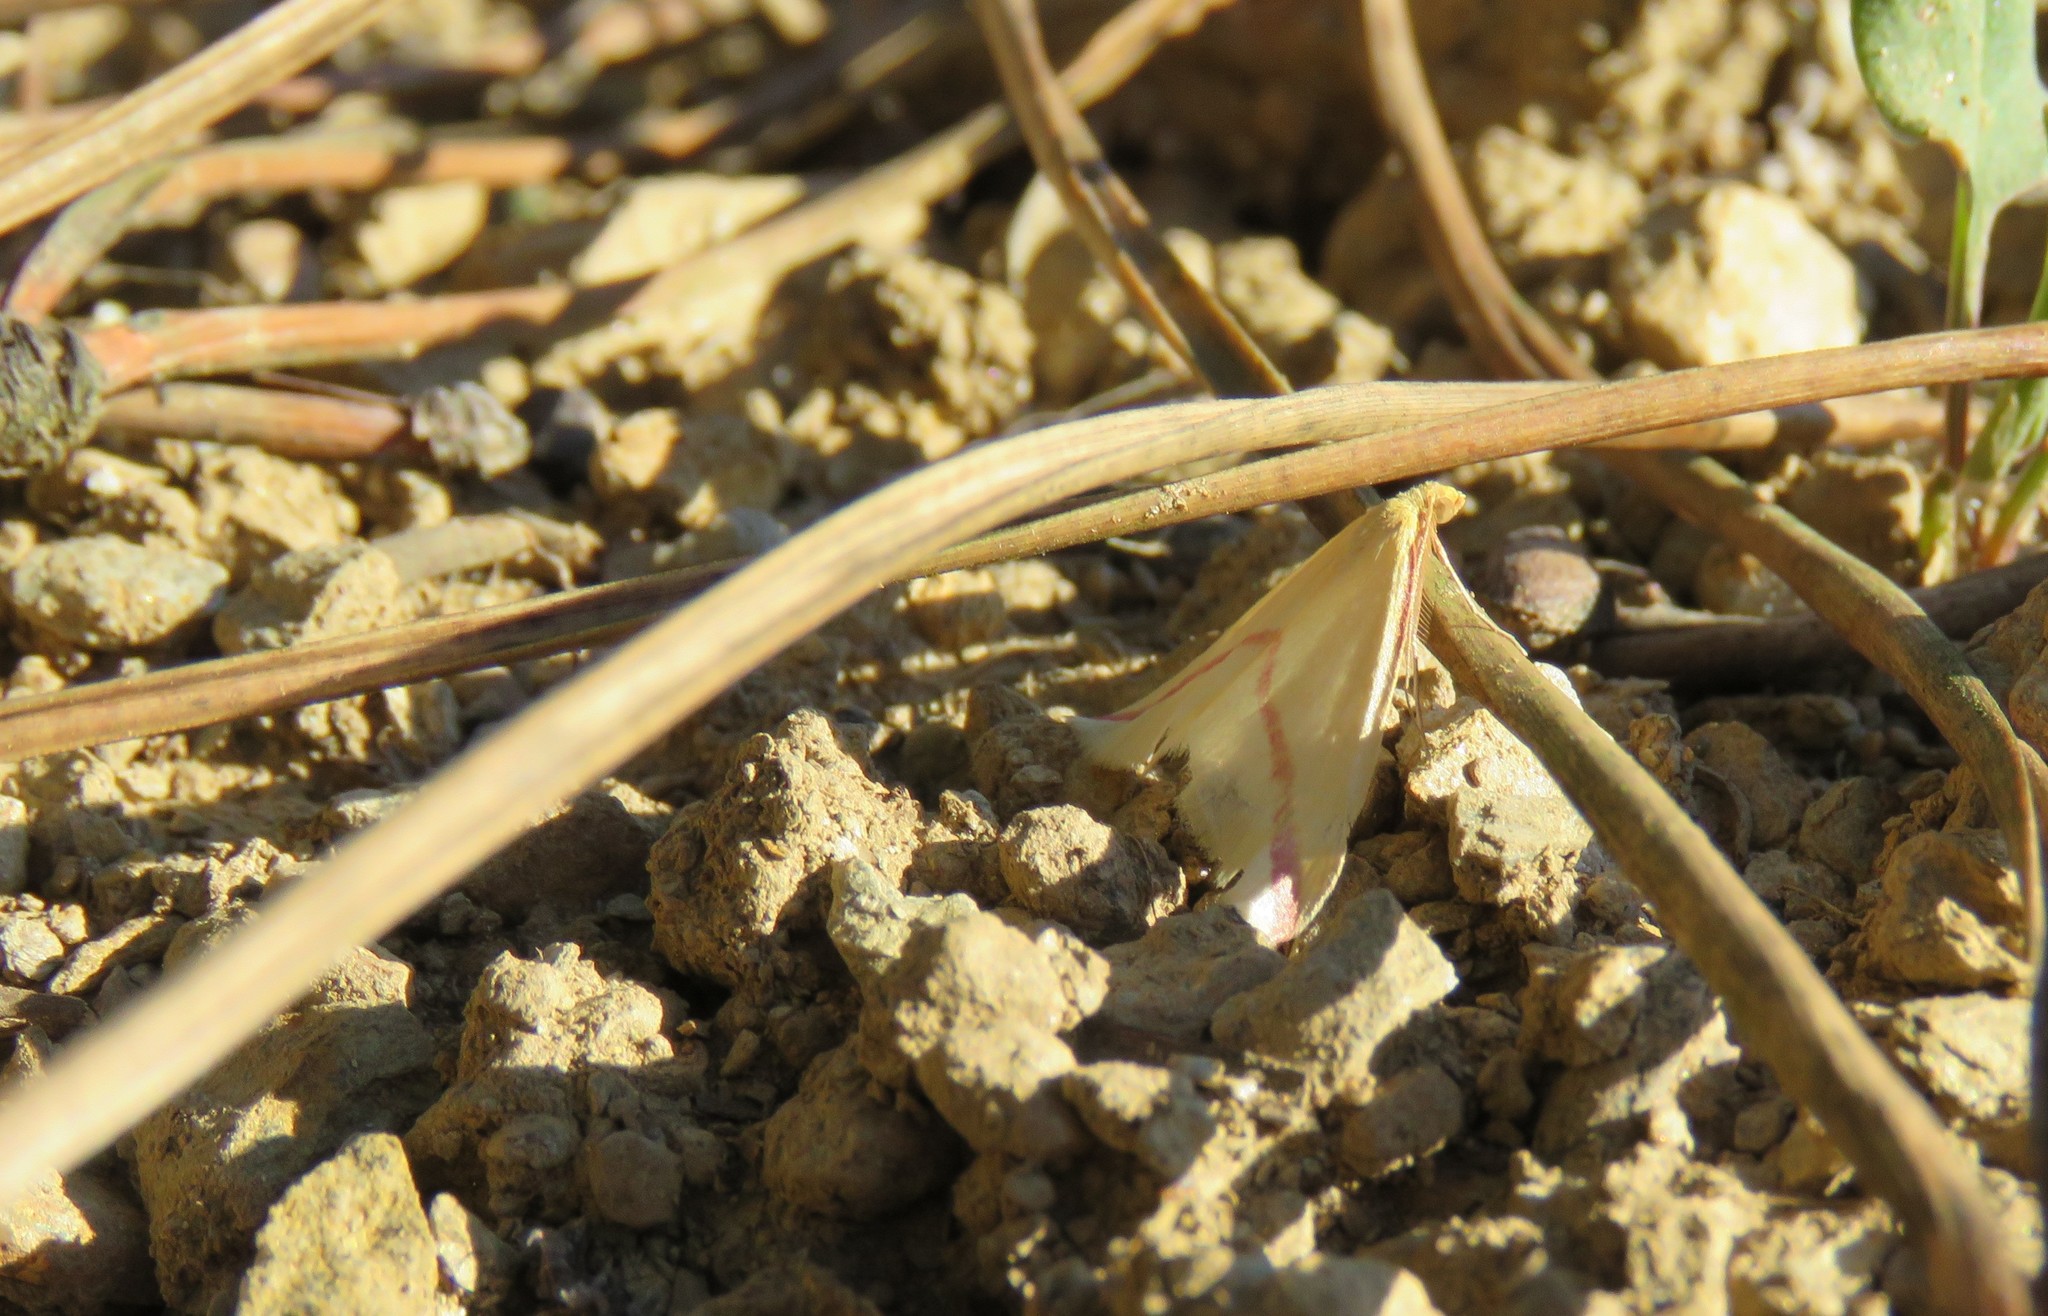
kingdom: Animalia
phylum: Arthropoda
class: Insecta
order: Lepidoptera
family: Geometridae
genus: Rhodometra
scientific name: Rhodometra sacraria
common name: Vestal
